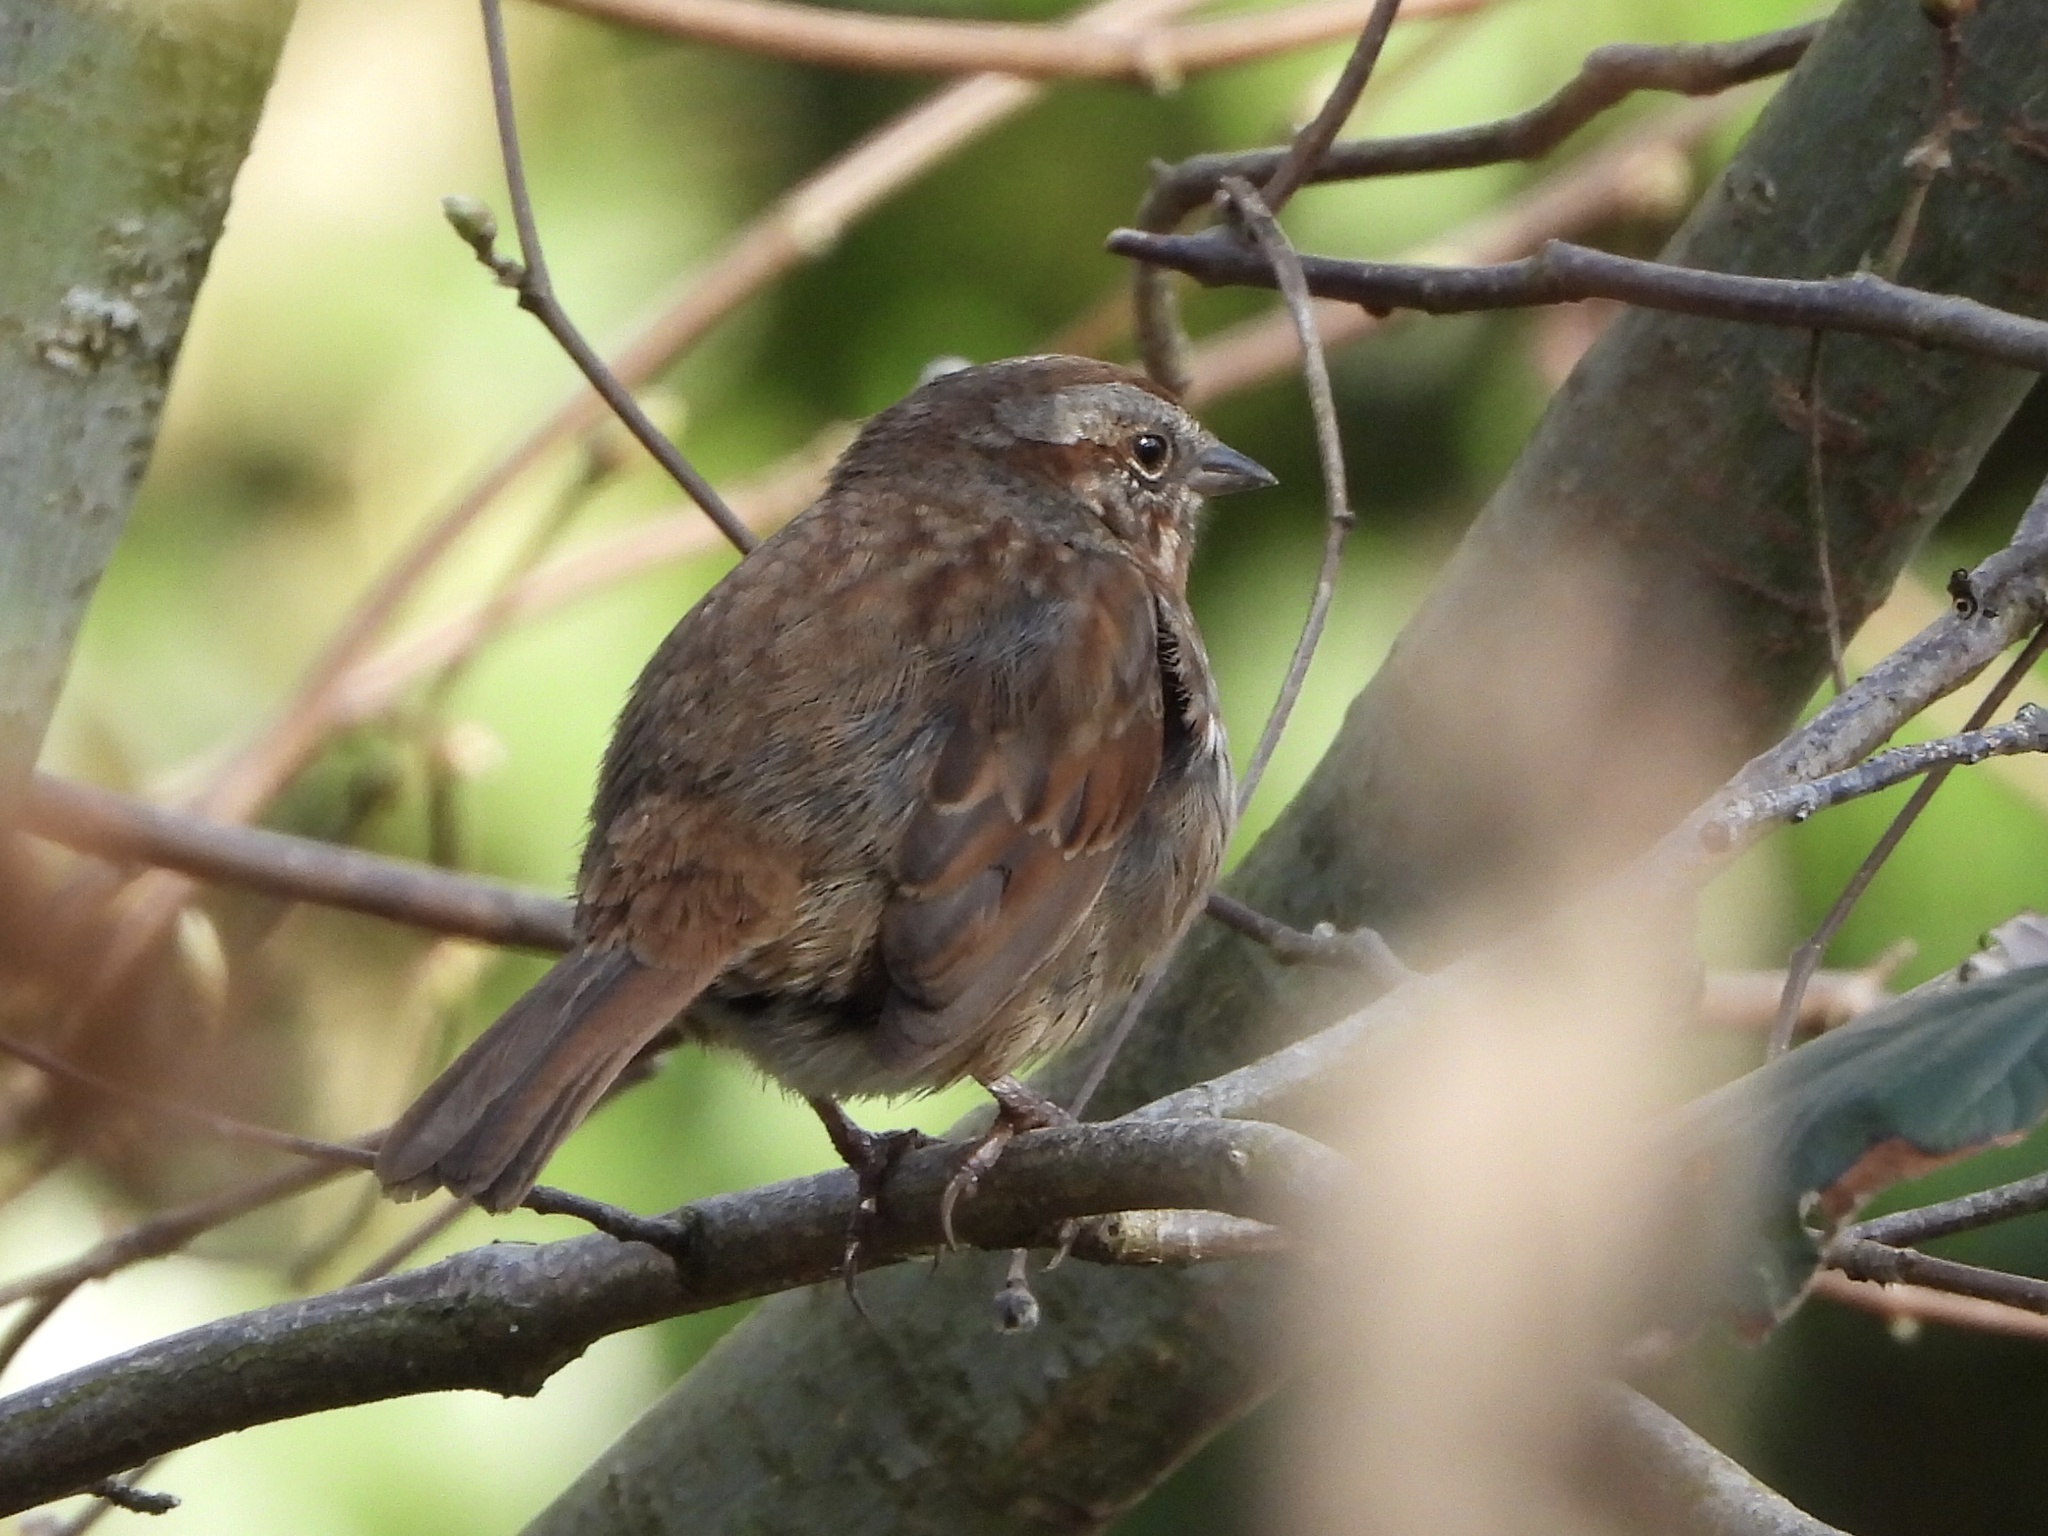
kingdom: Animalia
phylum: Chordata
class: Aves
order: Passeriformes
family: Passerellidae
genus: Melospiza
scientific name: Melospiza melodia
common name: Song sparrow
